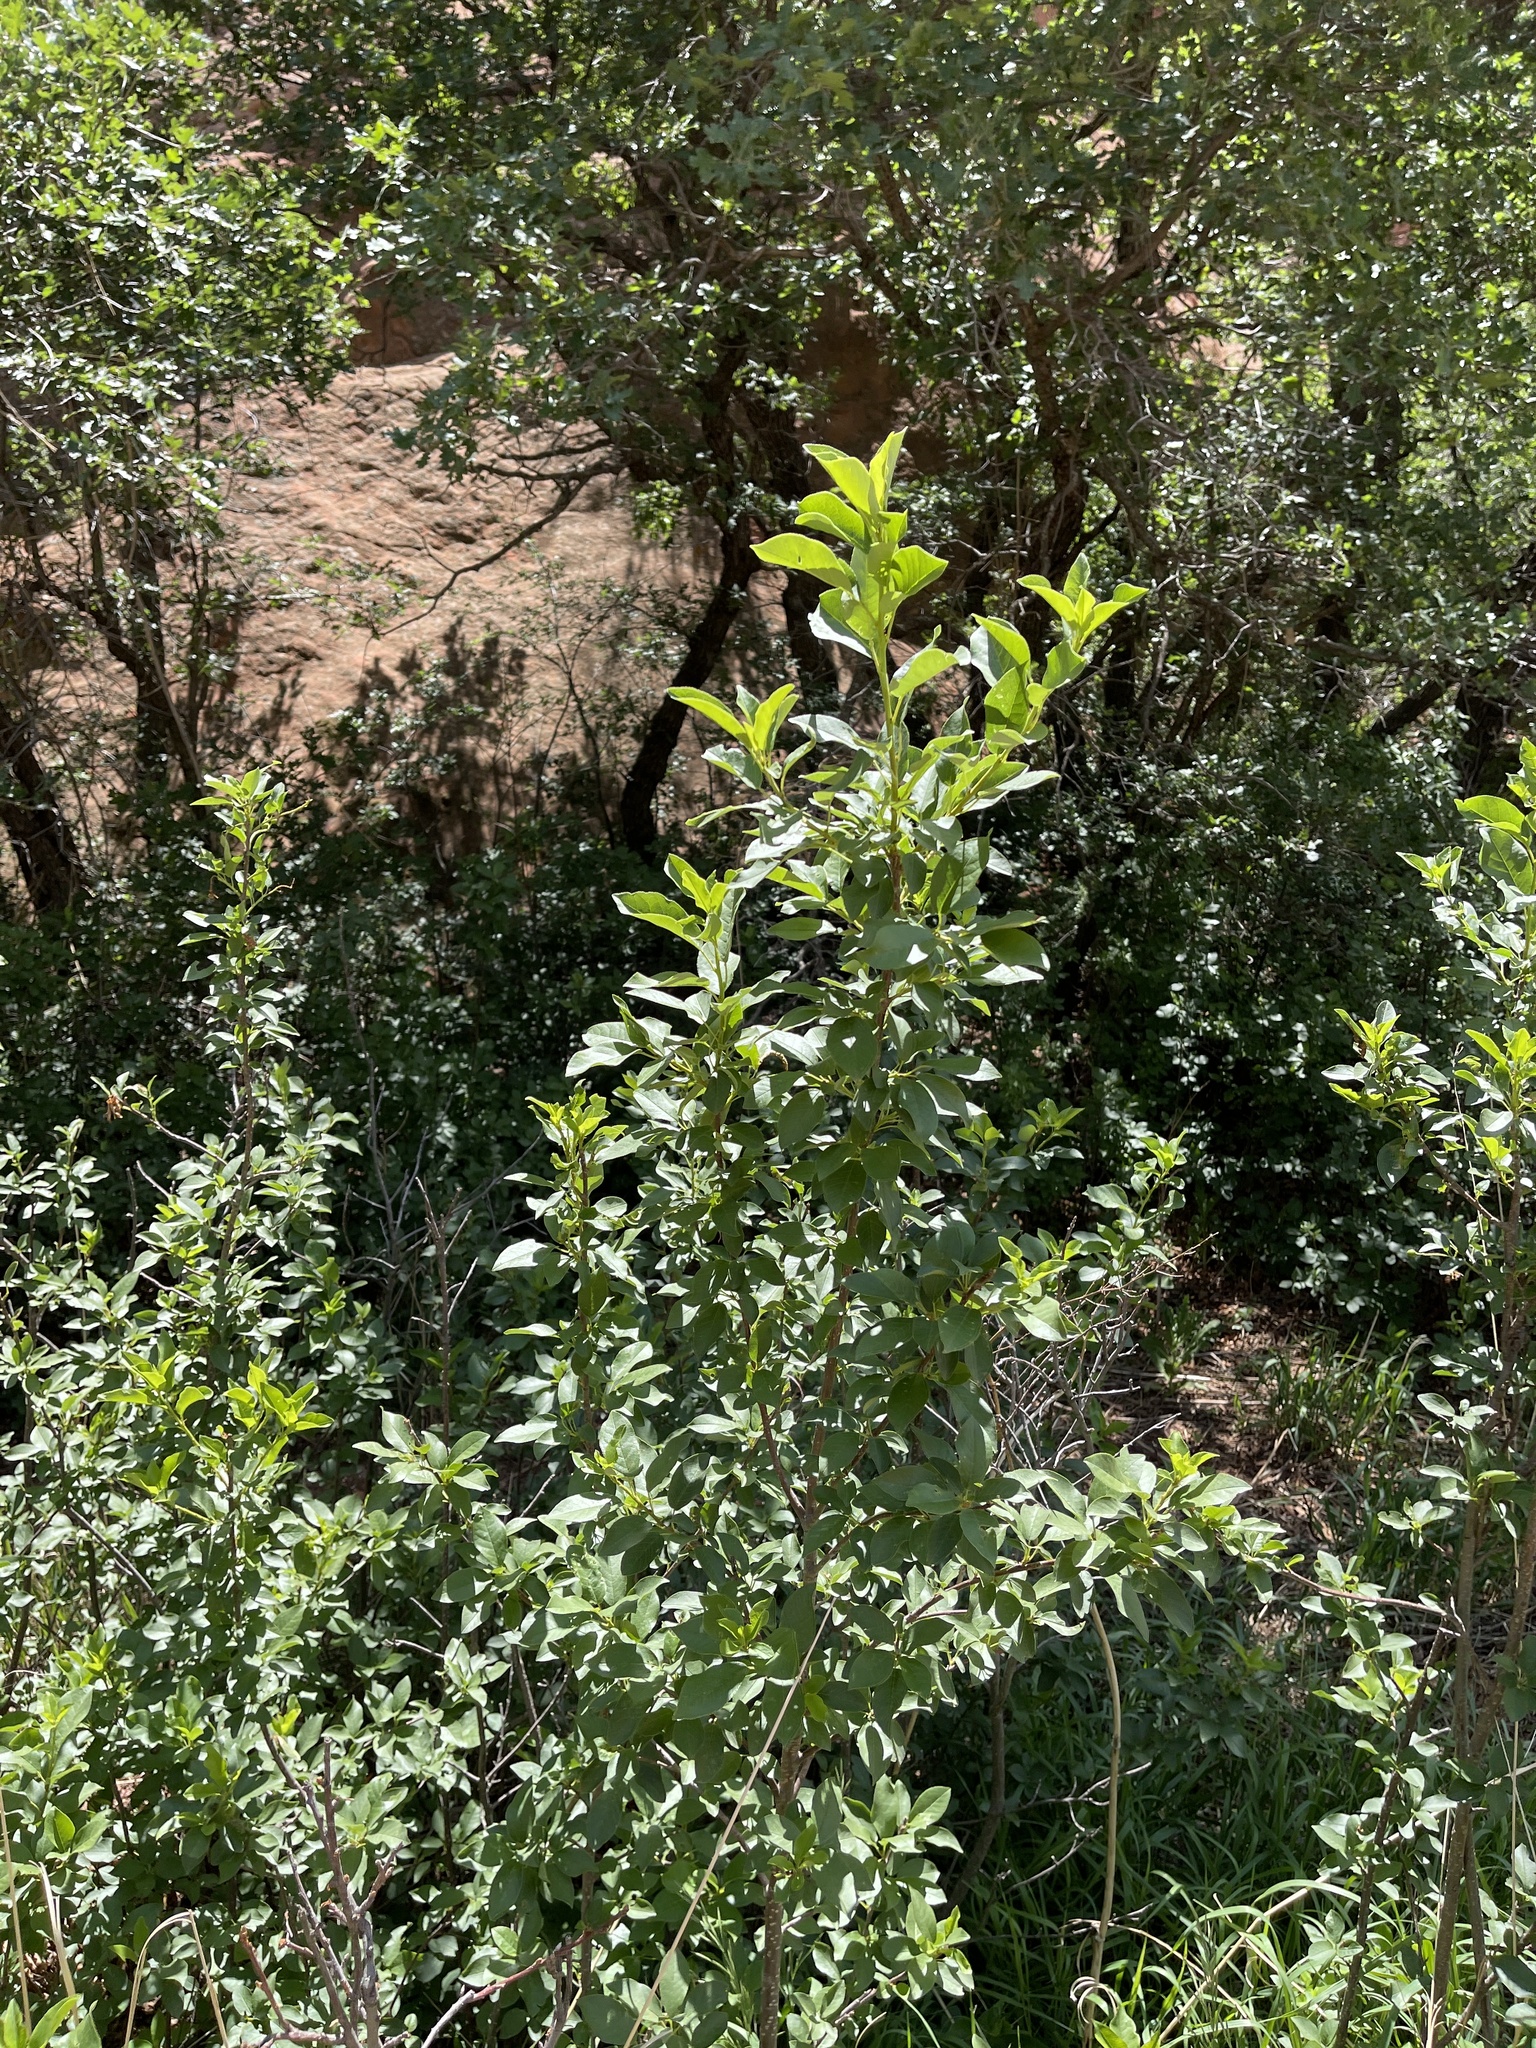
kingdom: Plantae
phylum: Tracheophyta
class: Magnoliopsida
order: Rosales
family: Rosaceae
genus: Prunus
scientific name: Prunus virginiana
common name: Chokecherry
